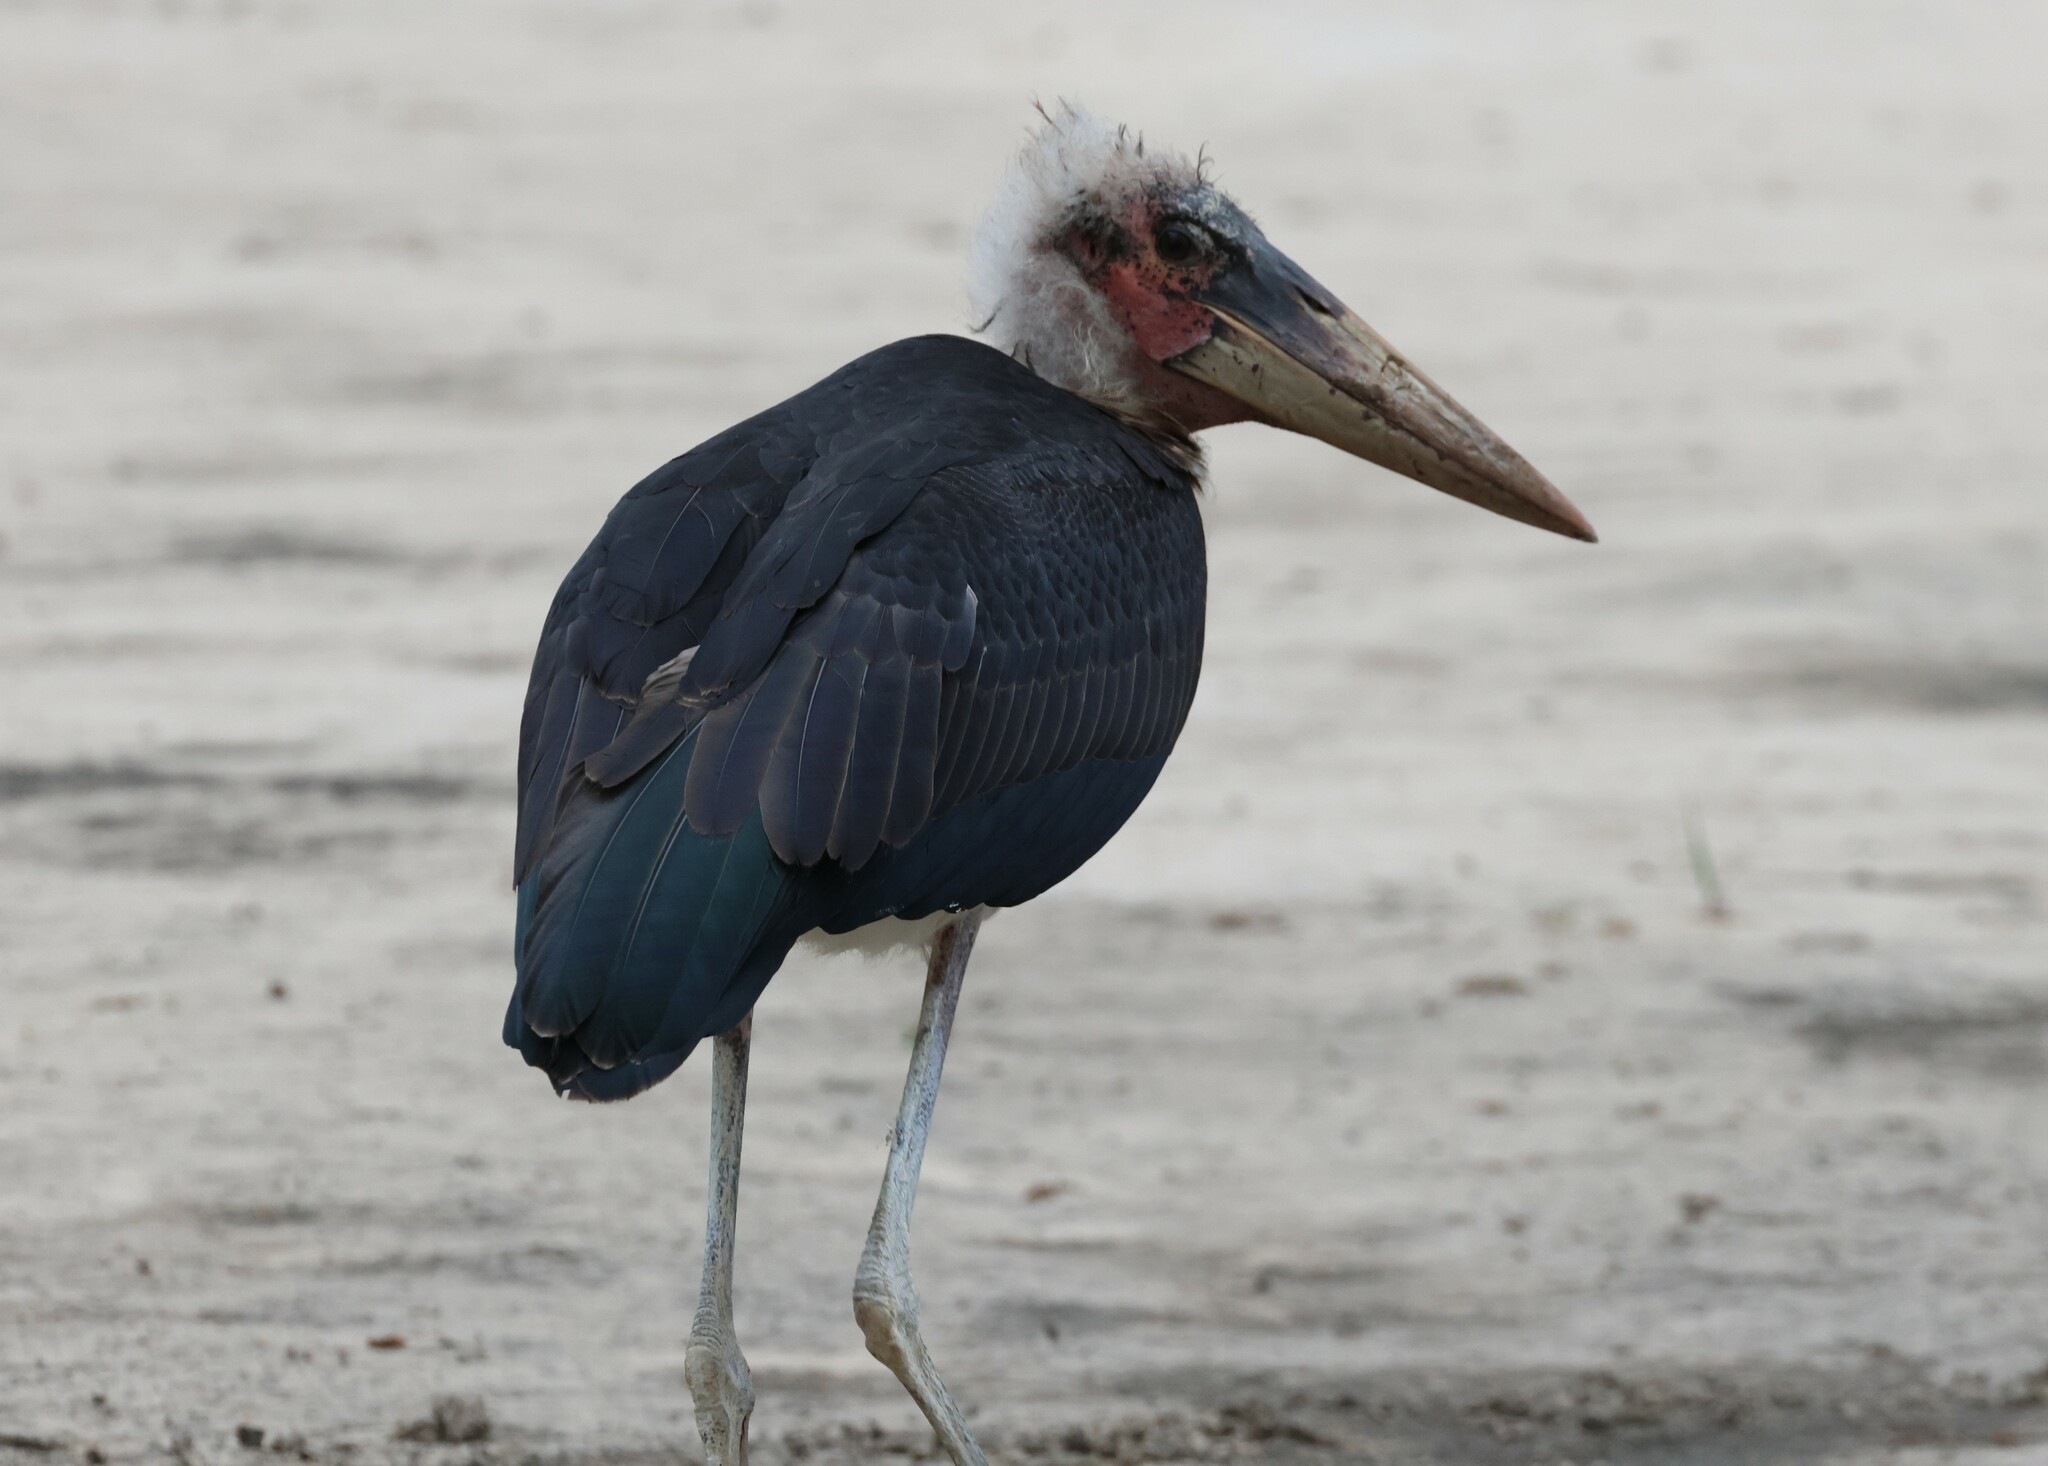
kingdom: Animalia
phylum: Chordata
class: Aves
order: Ciconiiformes
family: Ciconiidae
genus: Leptoptilos
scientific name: Leptoptilos crumenifer
